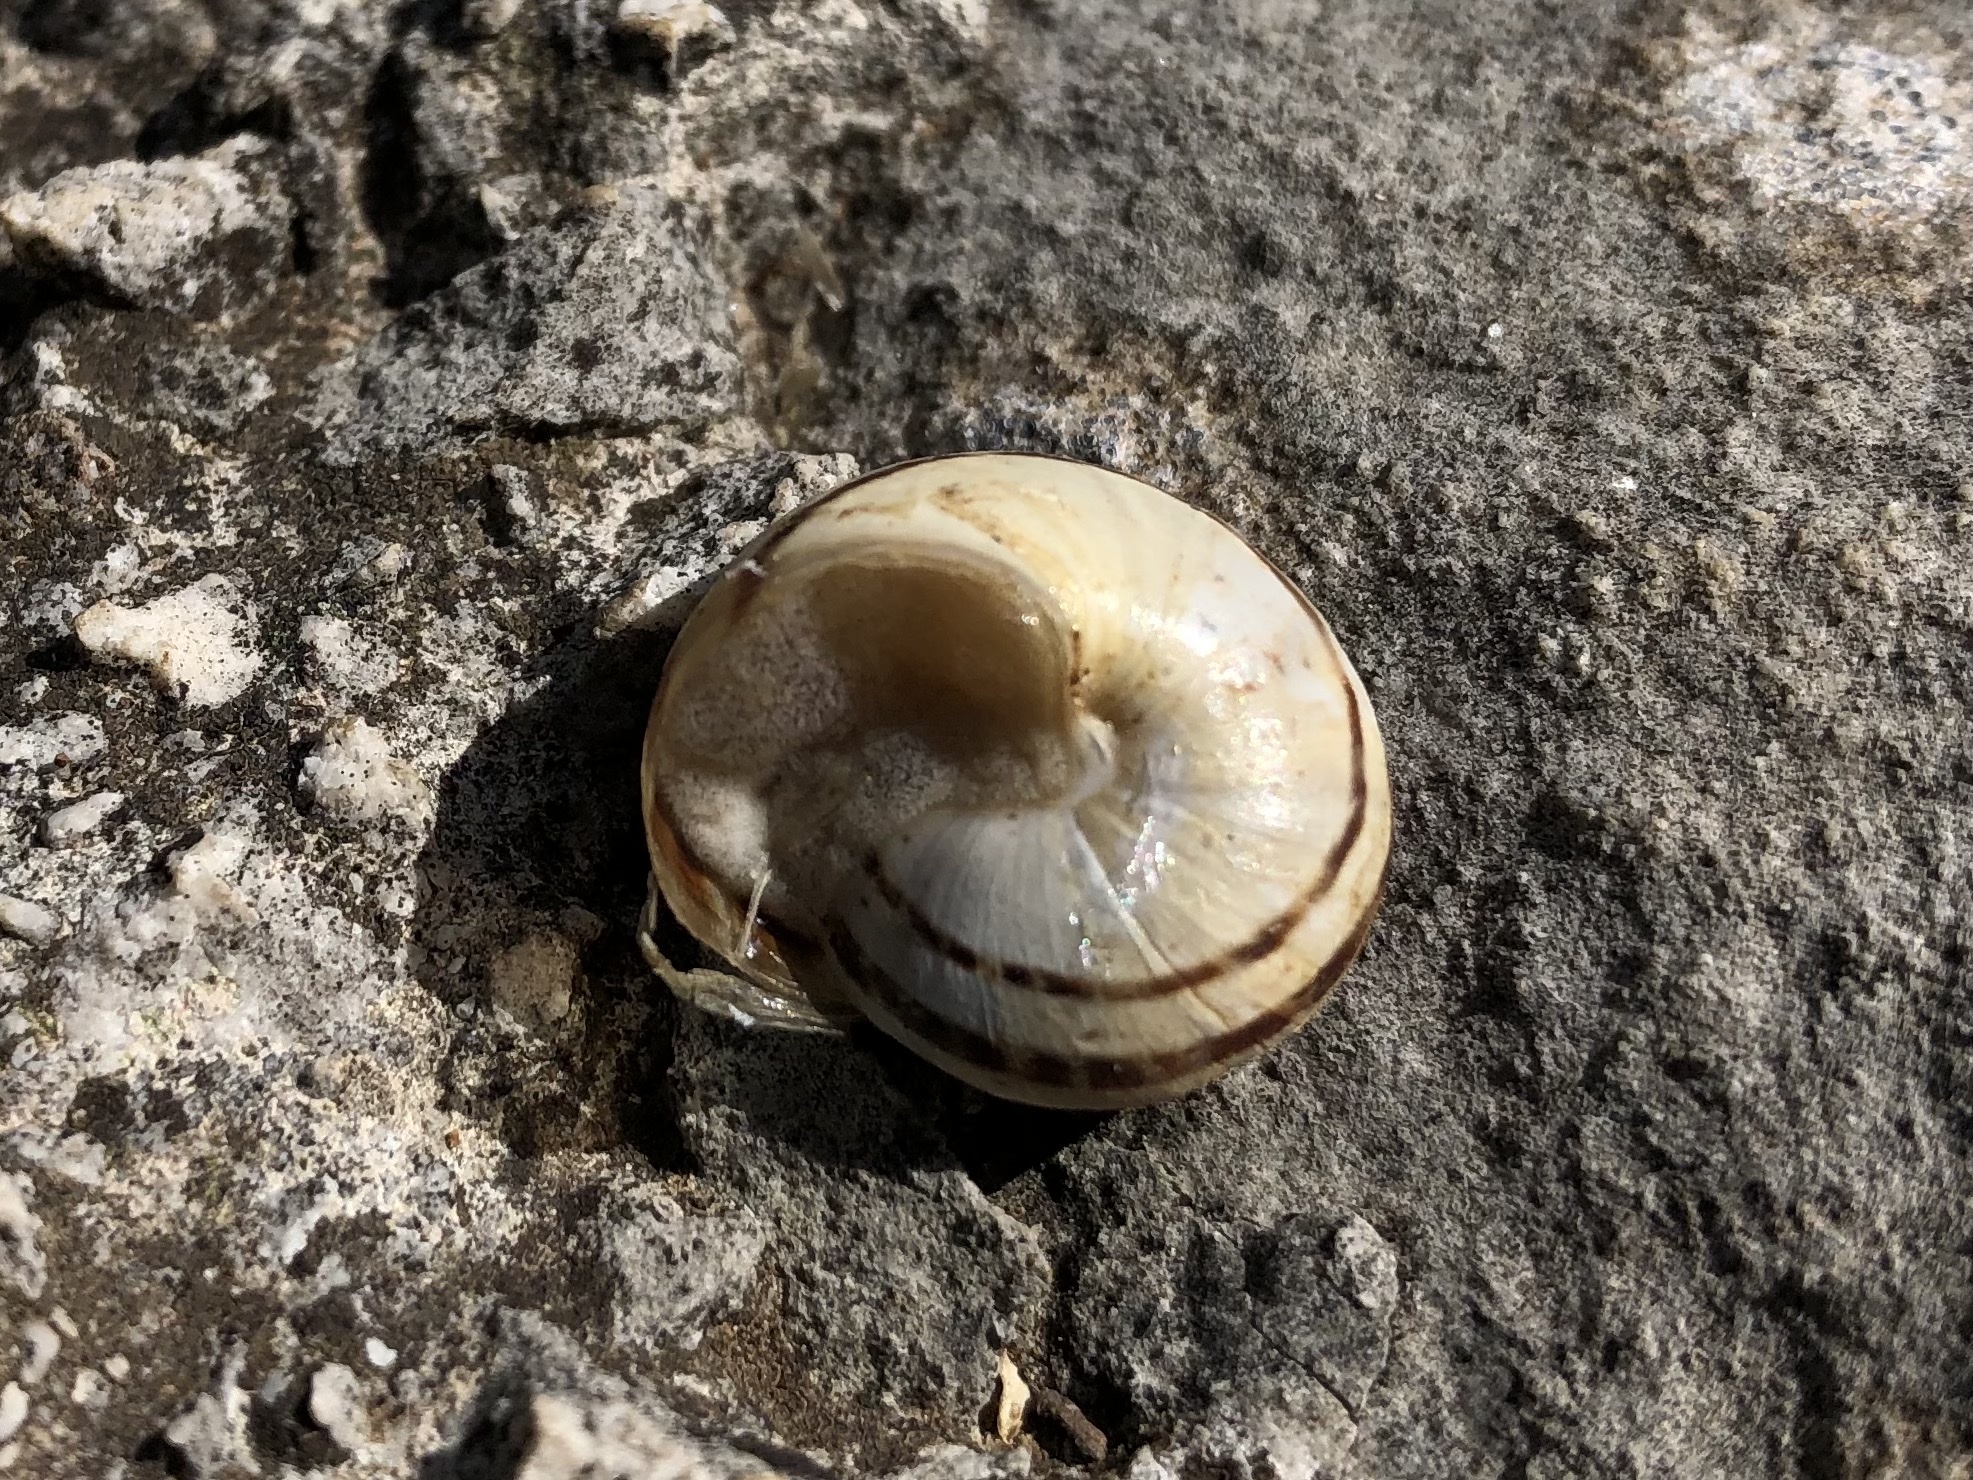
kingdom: Animalia
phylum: Mollusca
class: Gastropoda
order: Stylommatophora
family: Helicidae
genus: Eobania
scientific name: Eobania vermiculata
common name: Chocolateband snail
